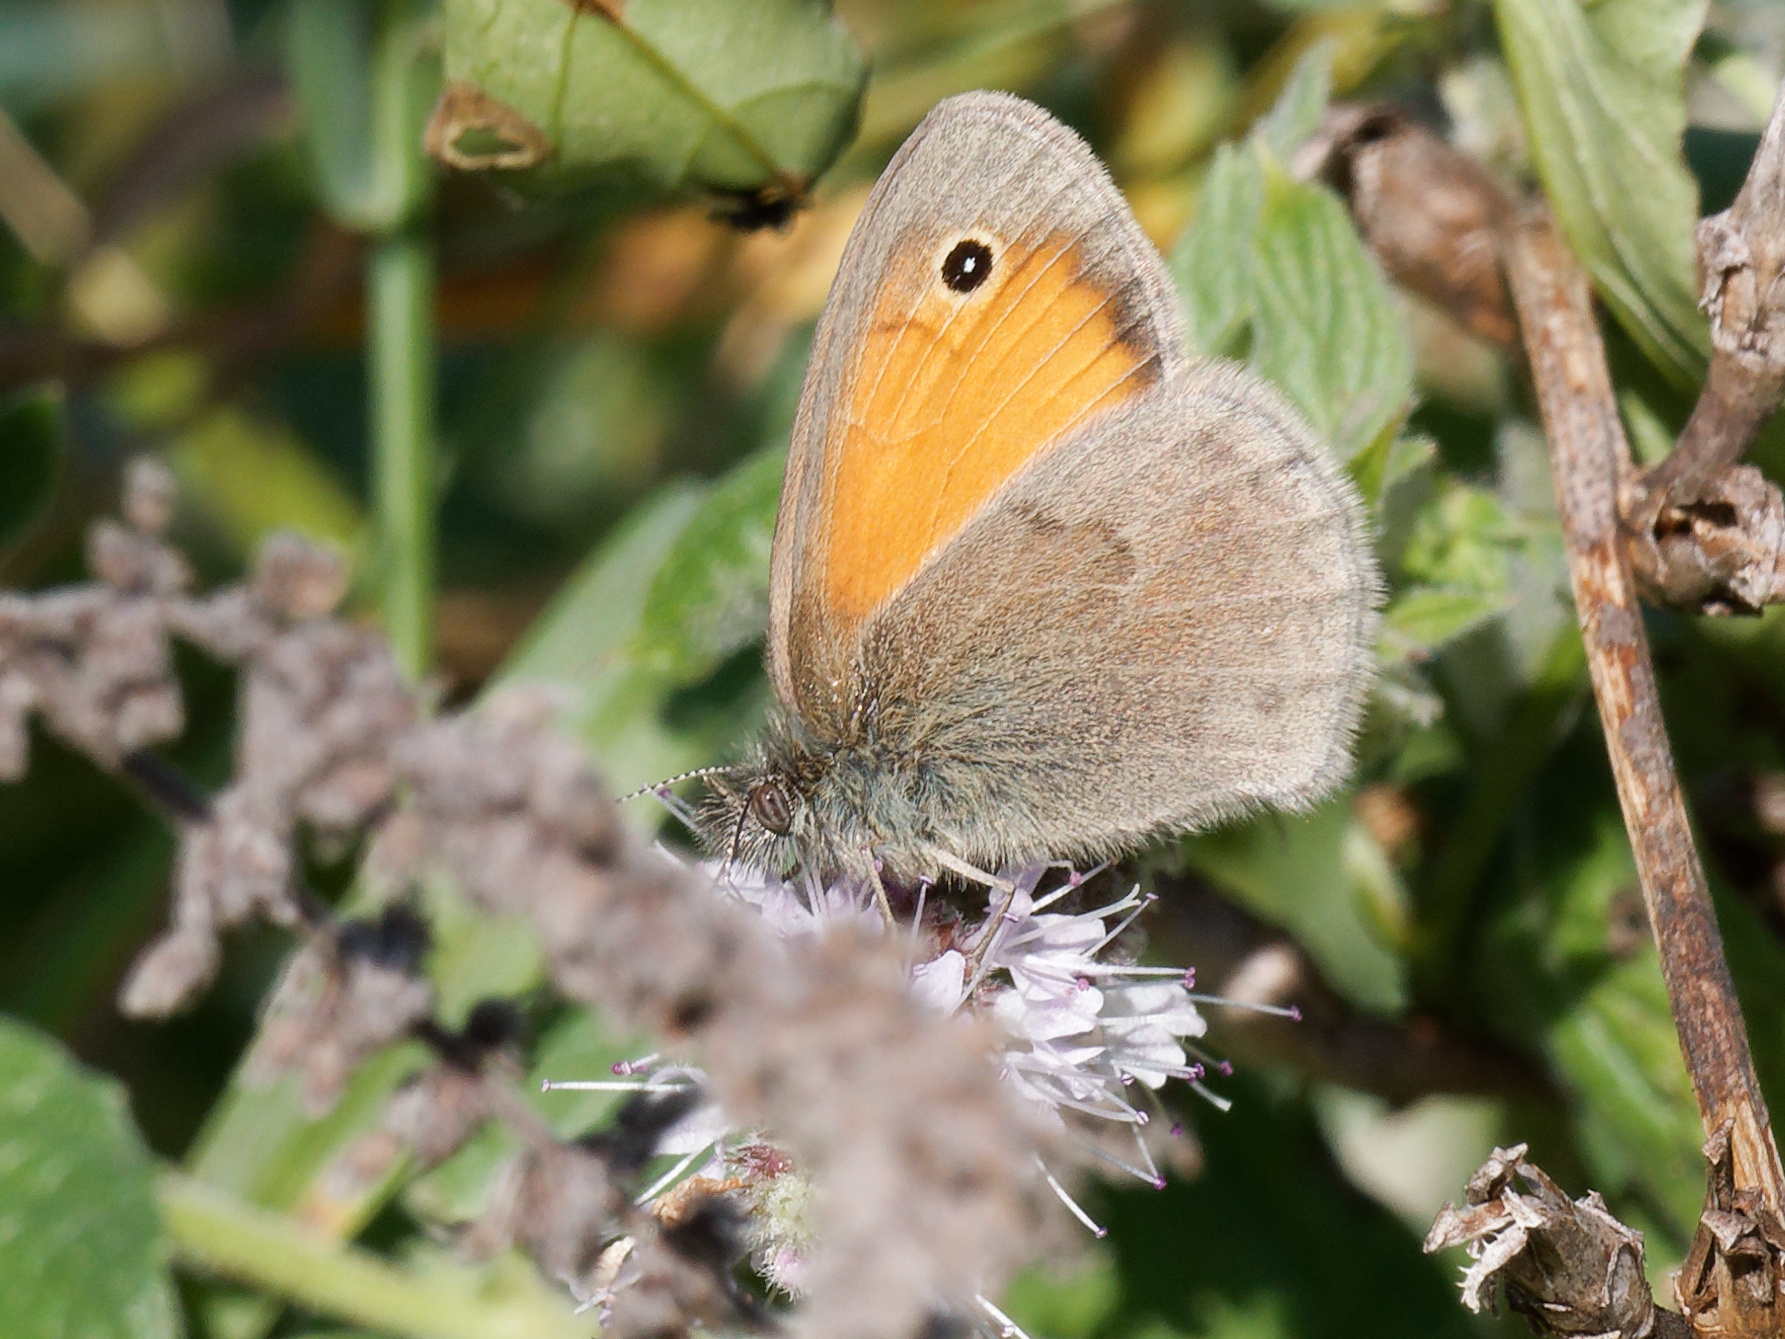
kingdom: Animalia
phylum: Arthropoda
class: Insecta
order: Lepidoptera
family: Nymphalidae
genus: Coenonympha
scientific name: Coenonympha pamphilus
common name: Small heath
